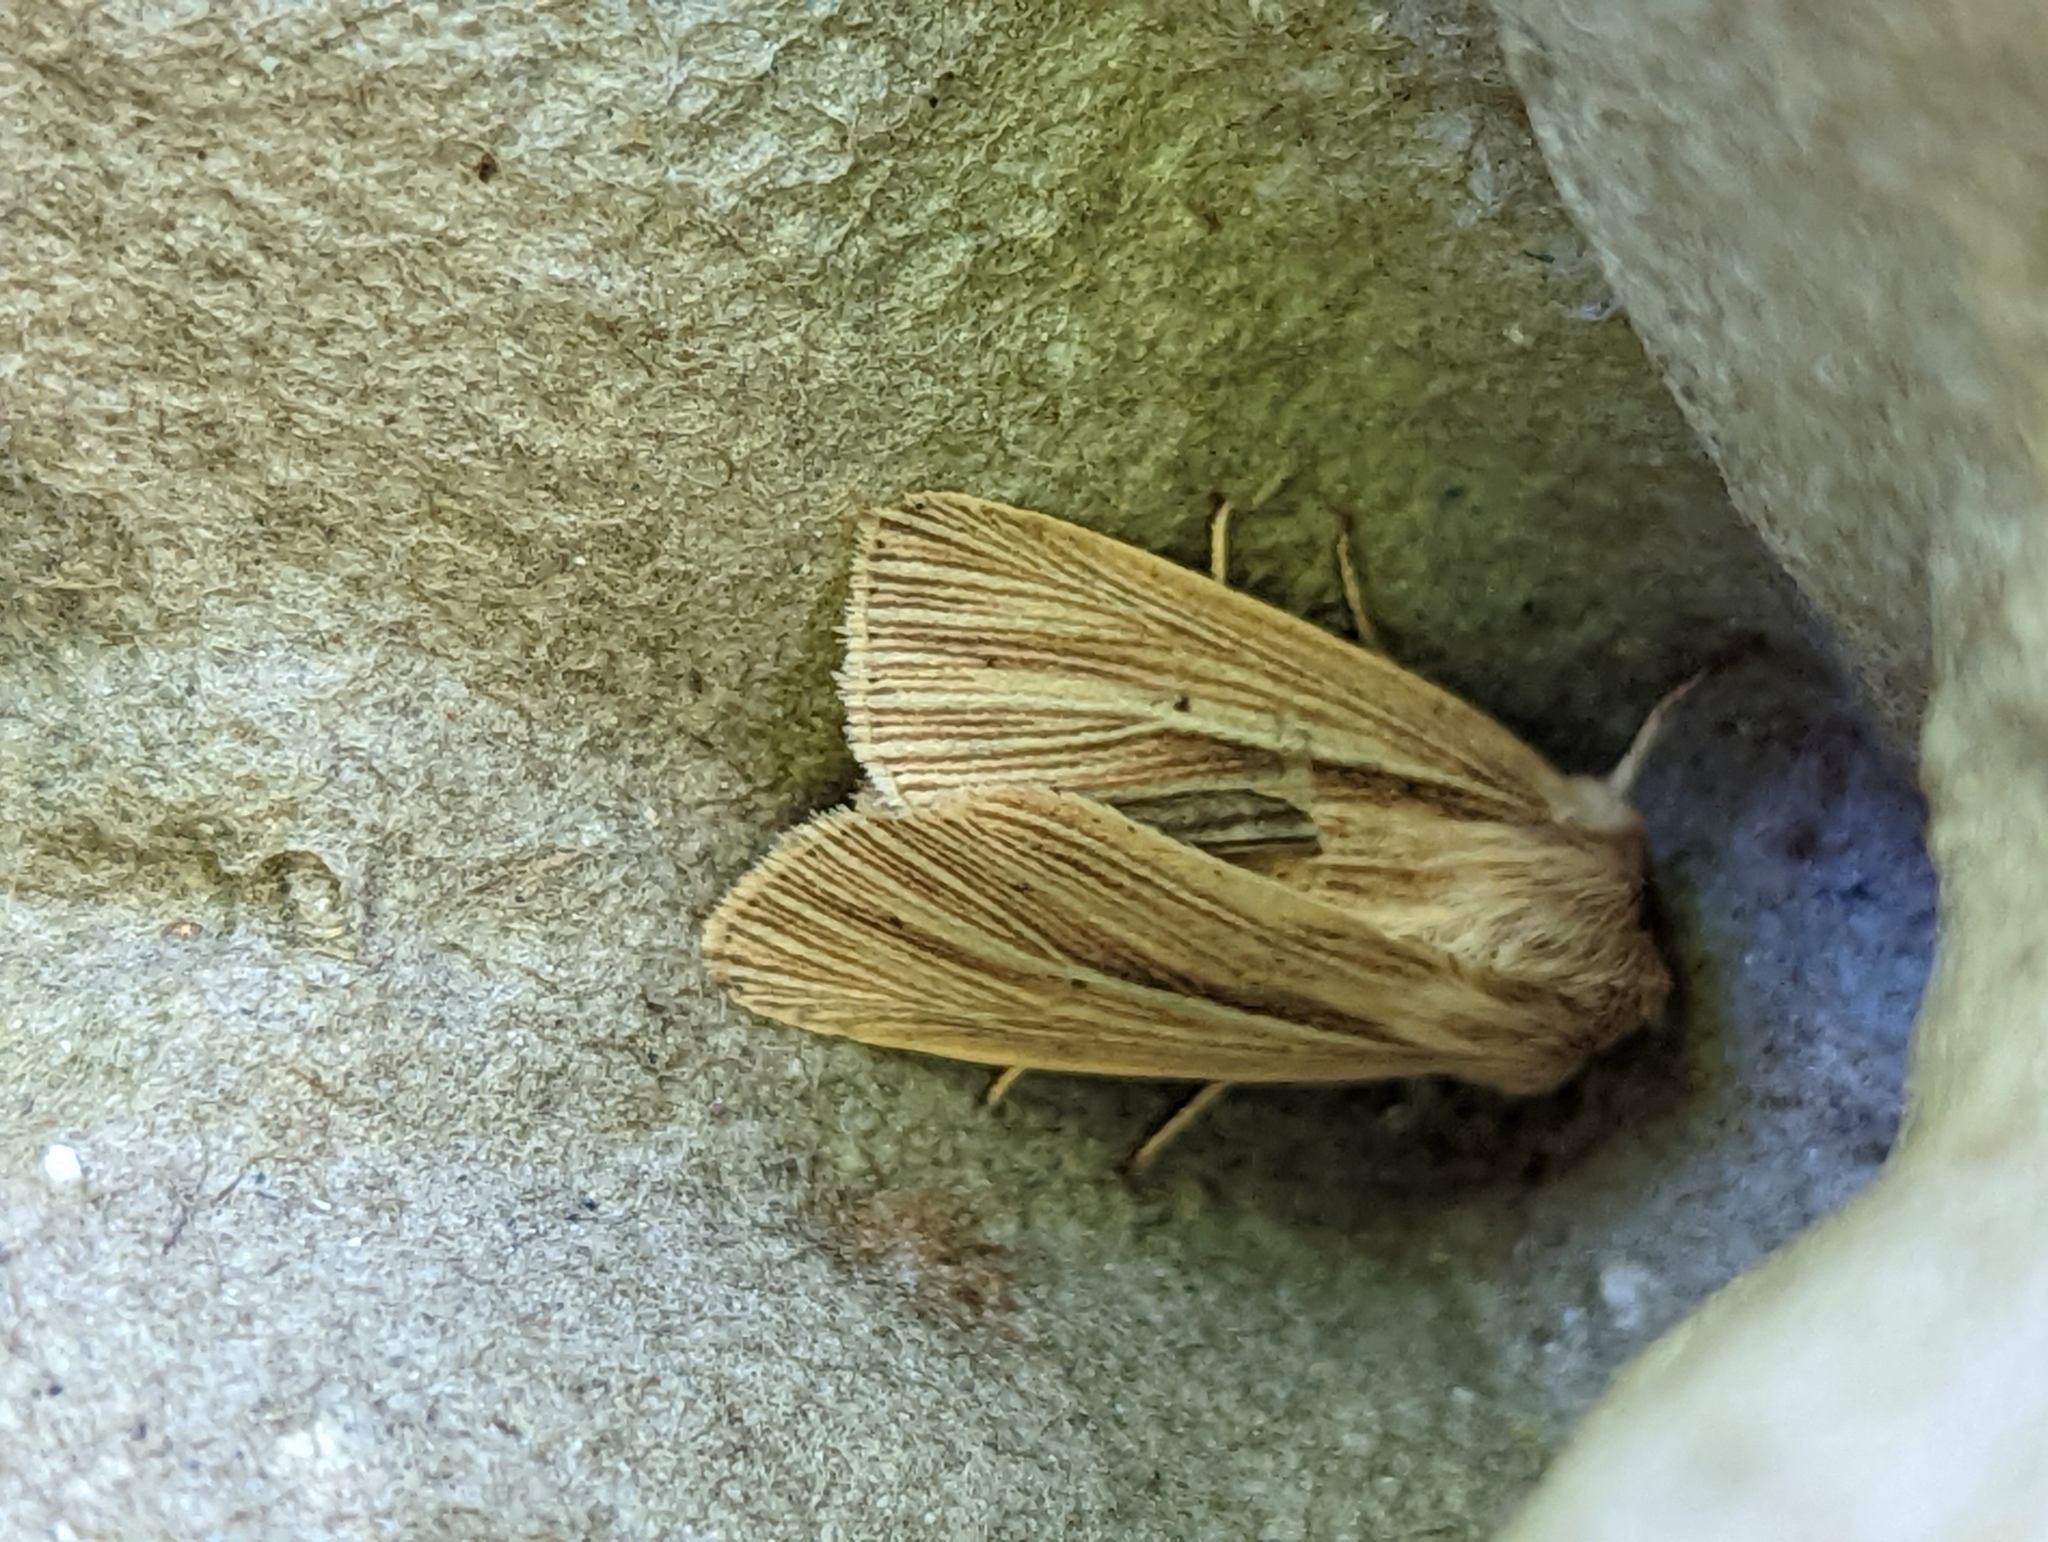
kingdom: Animalia
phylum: Arthropoda
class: Insecta
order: Lepidoptera
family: Noctuidae
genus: Mythimna
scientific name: Mythimna impura
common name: Smoky wainscot
